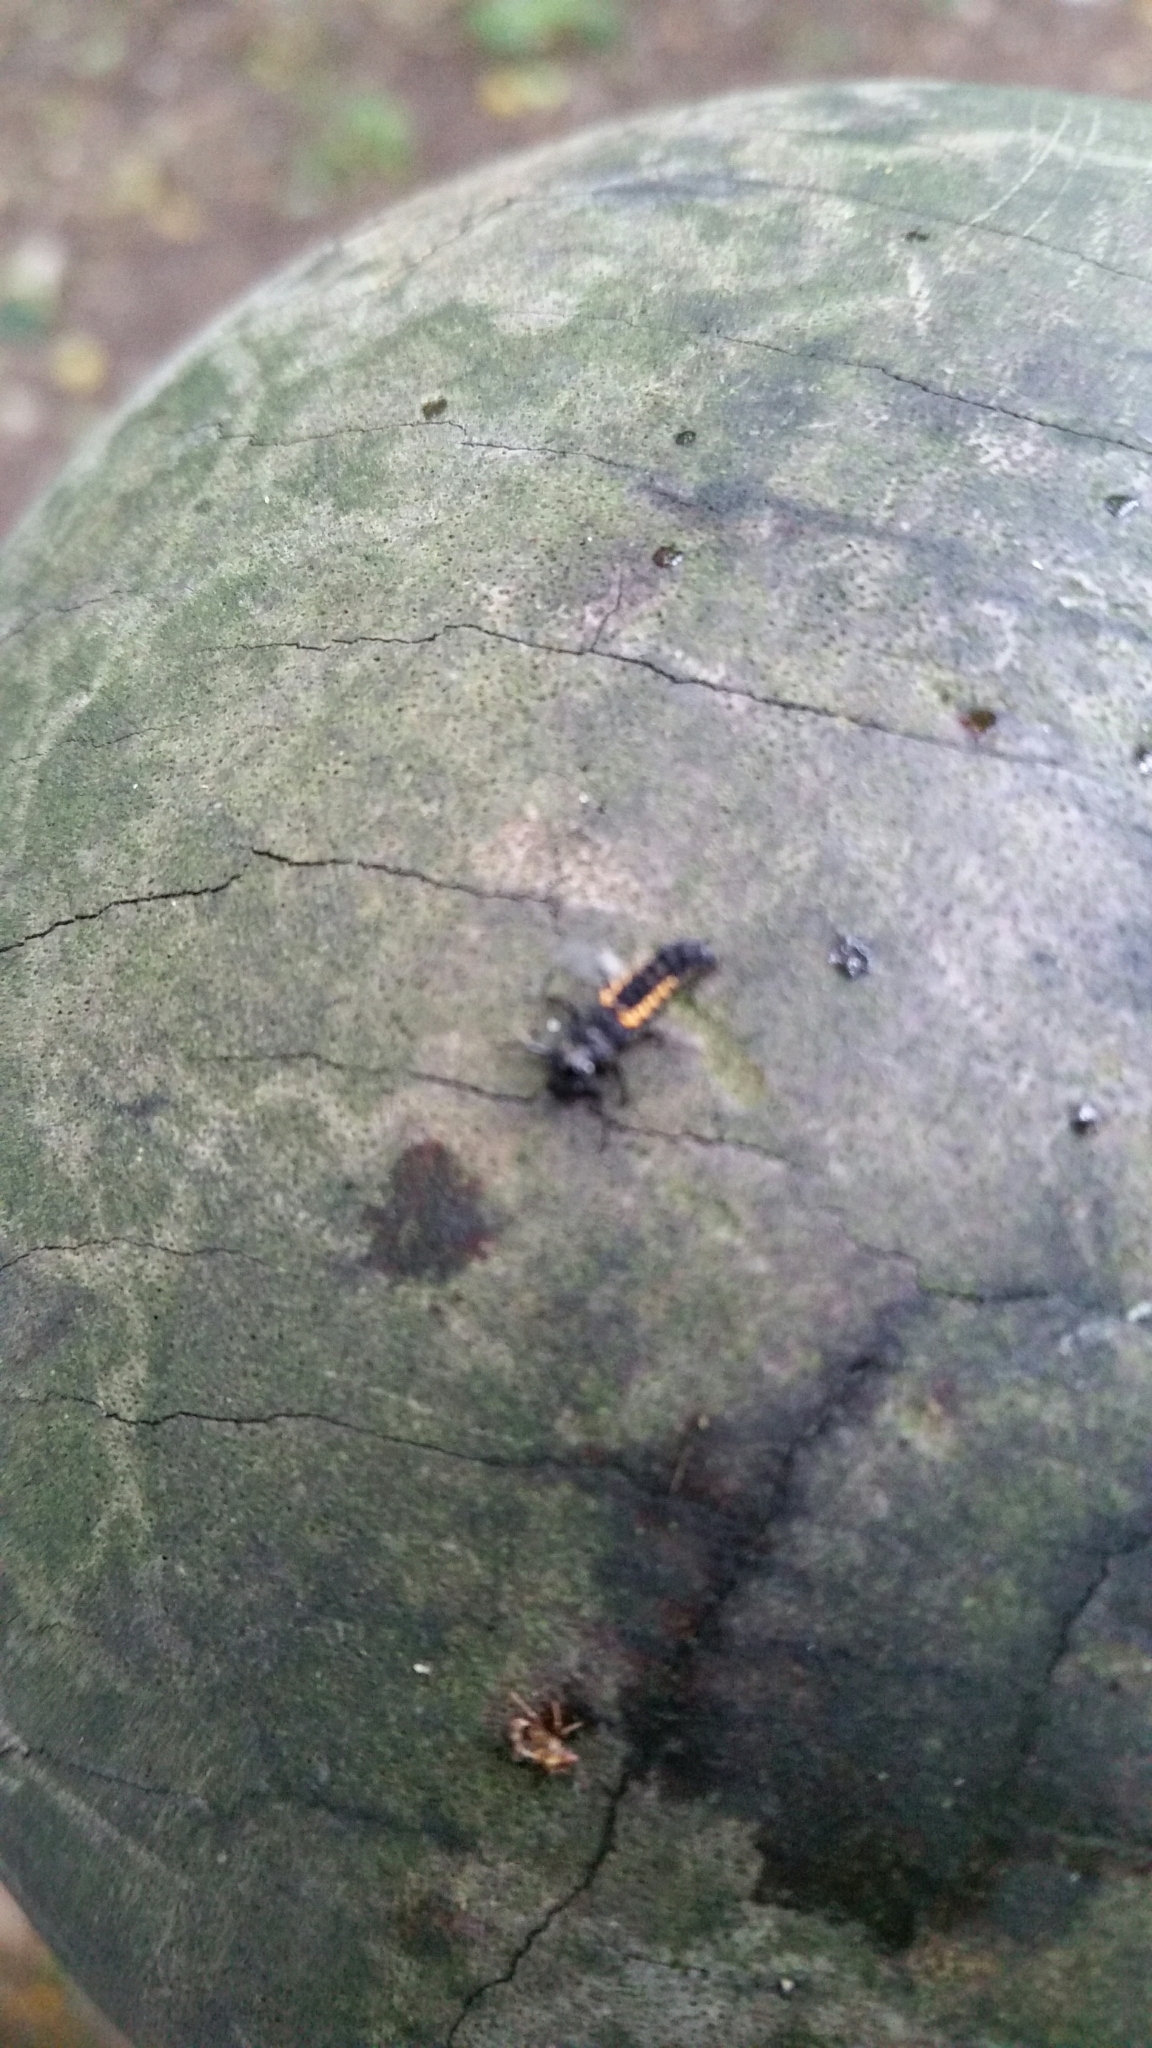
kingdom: Animalia
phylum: Arthropoda
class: Insecta
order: Coleoptera
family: Coccinellidae
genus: Harmonia
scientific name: Harmonia axyridis
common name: Harlequin ladybird
